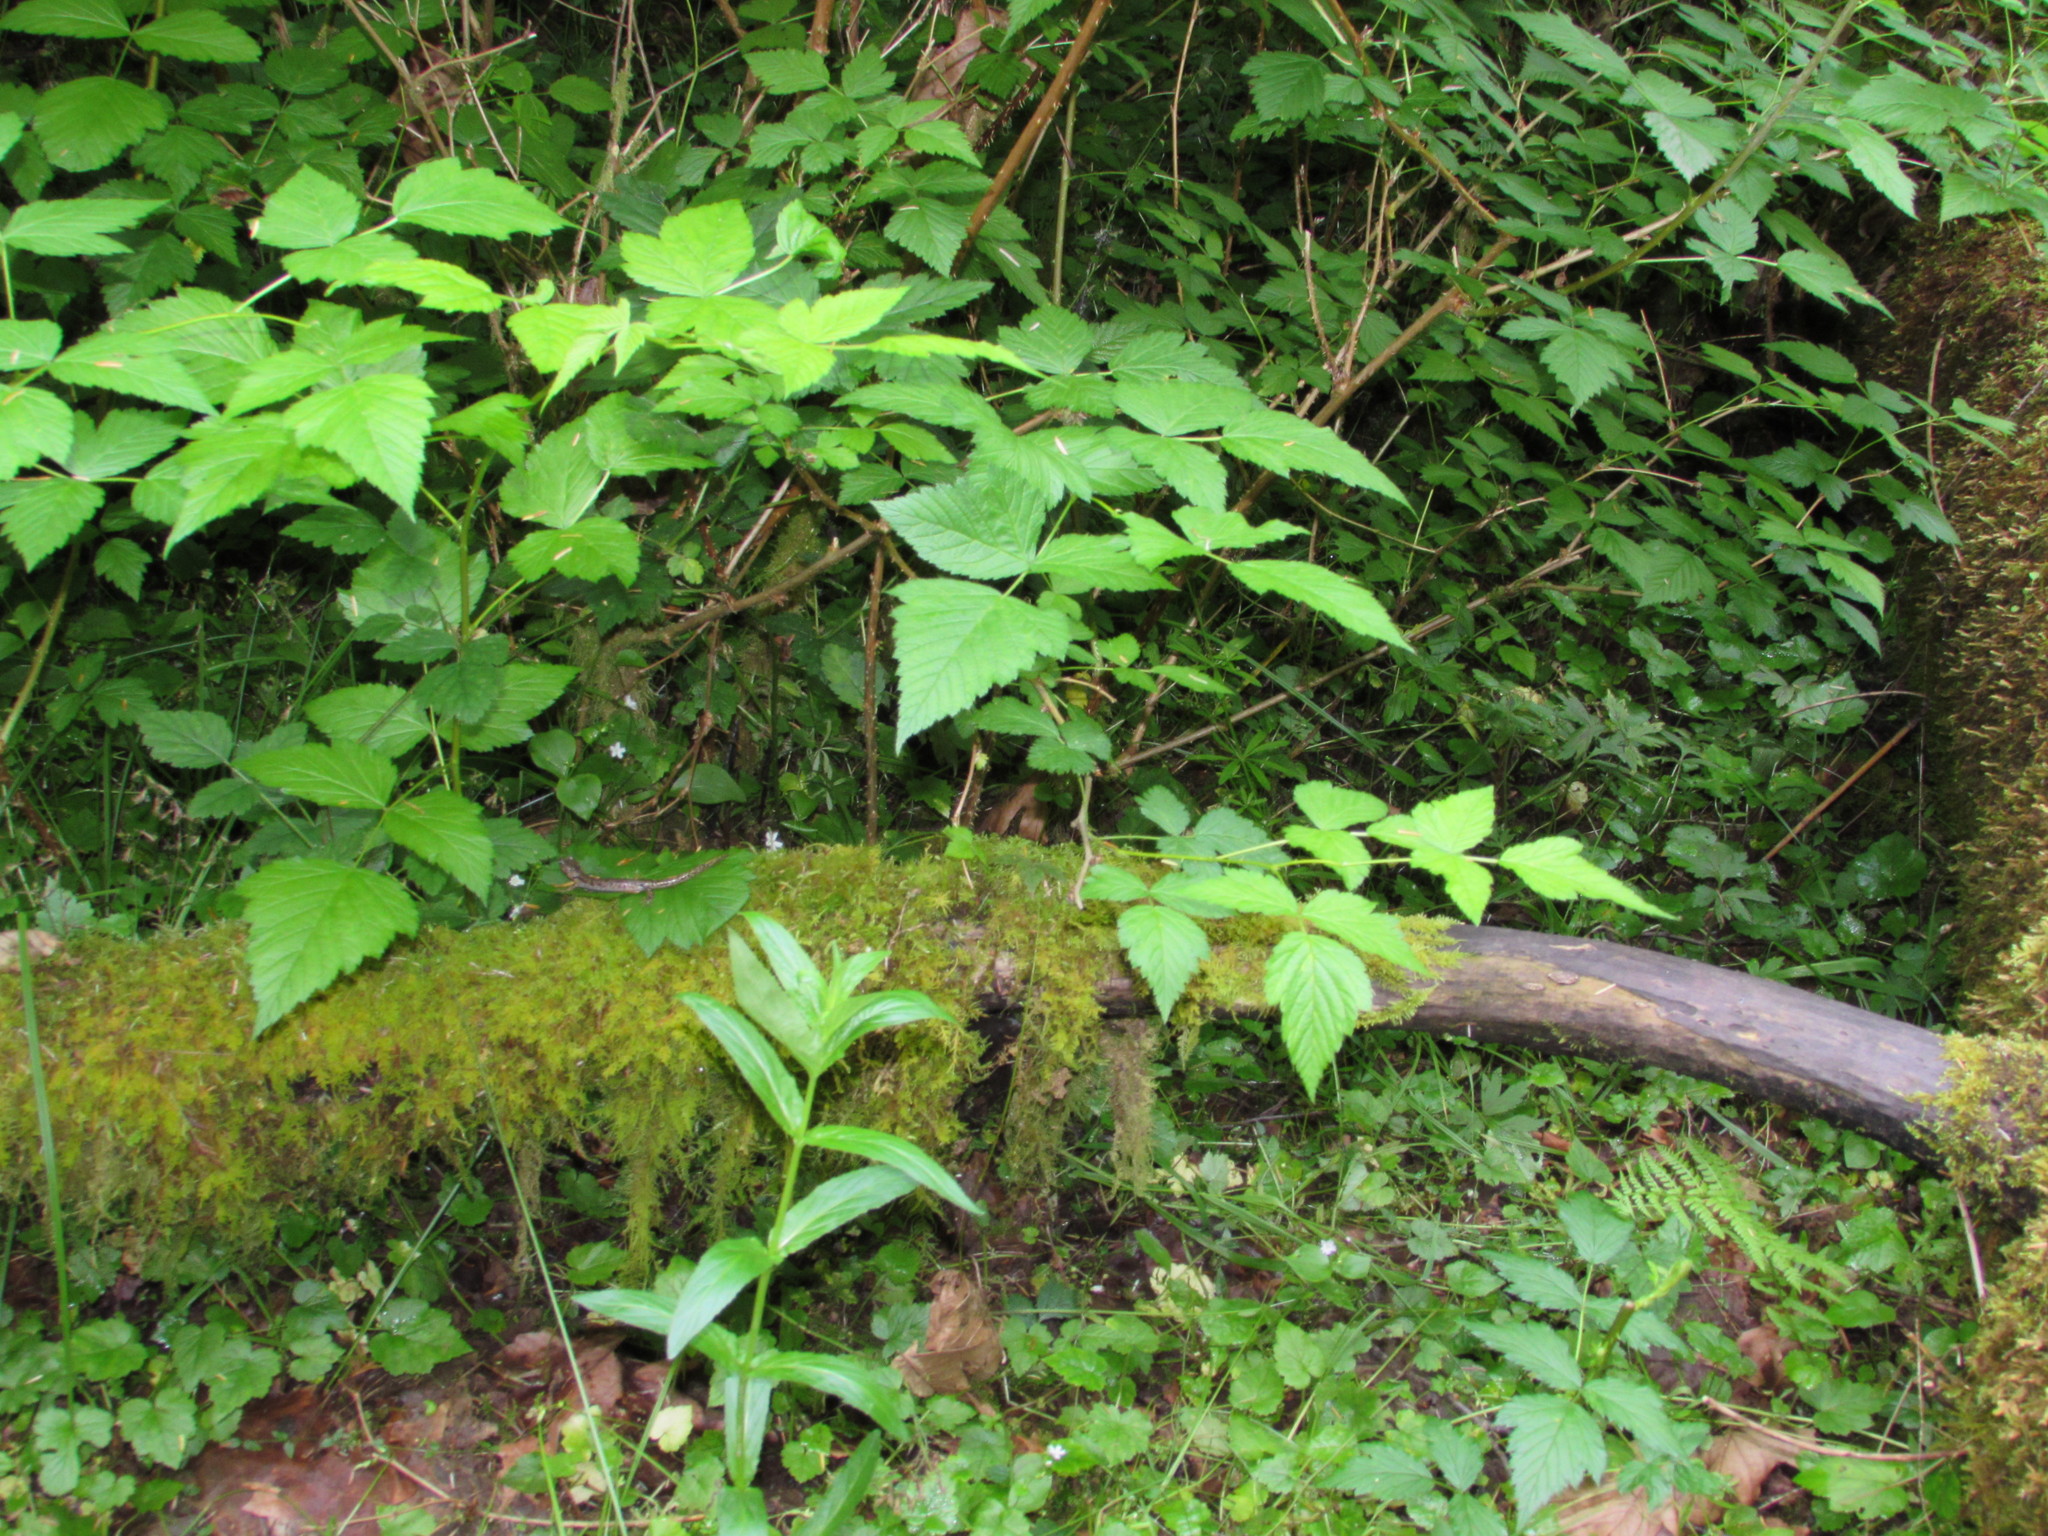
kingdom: Animalia
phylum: Chordata
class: Amphibia
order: Caudata
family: Plethodontidae
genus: Aneides
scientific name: Aneides ferreus
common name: Clouded salamander
